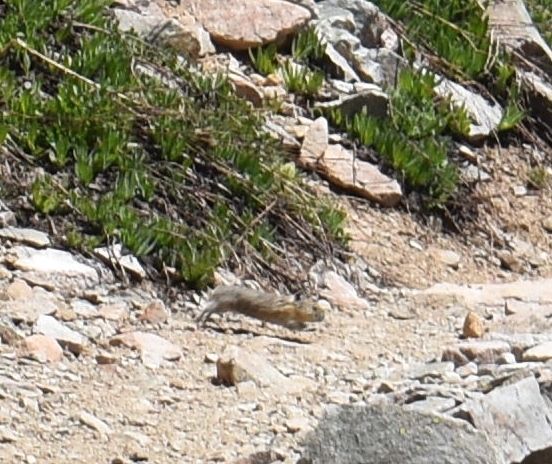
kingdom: Animalia
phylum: Chordata
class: Mammalia
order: Lagomorpha
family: Ochotonidae
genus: Ochotona
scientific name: Ochotona princeps
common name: American pika
